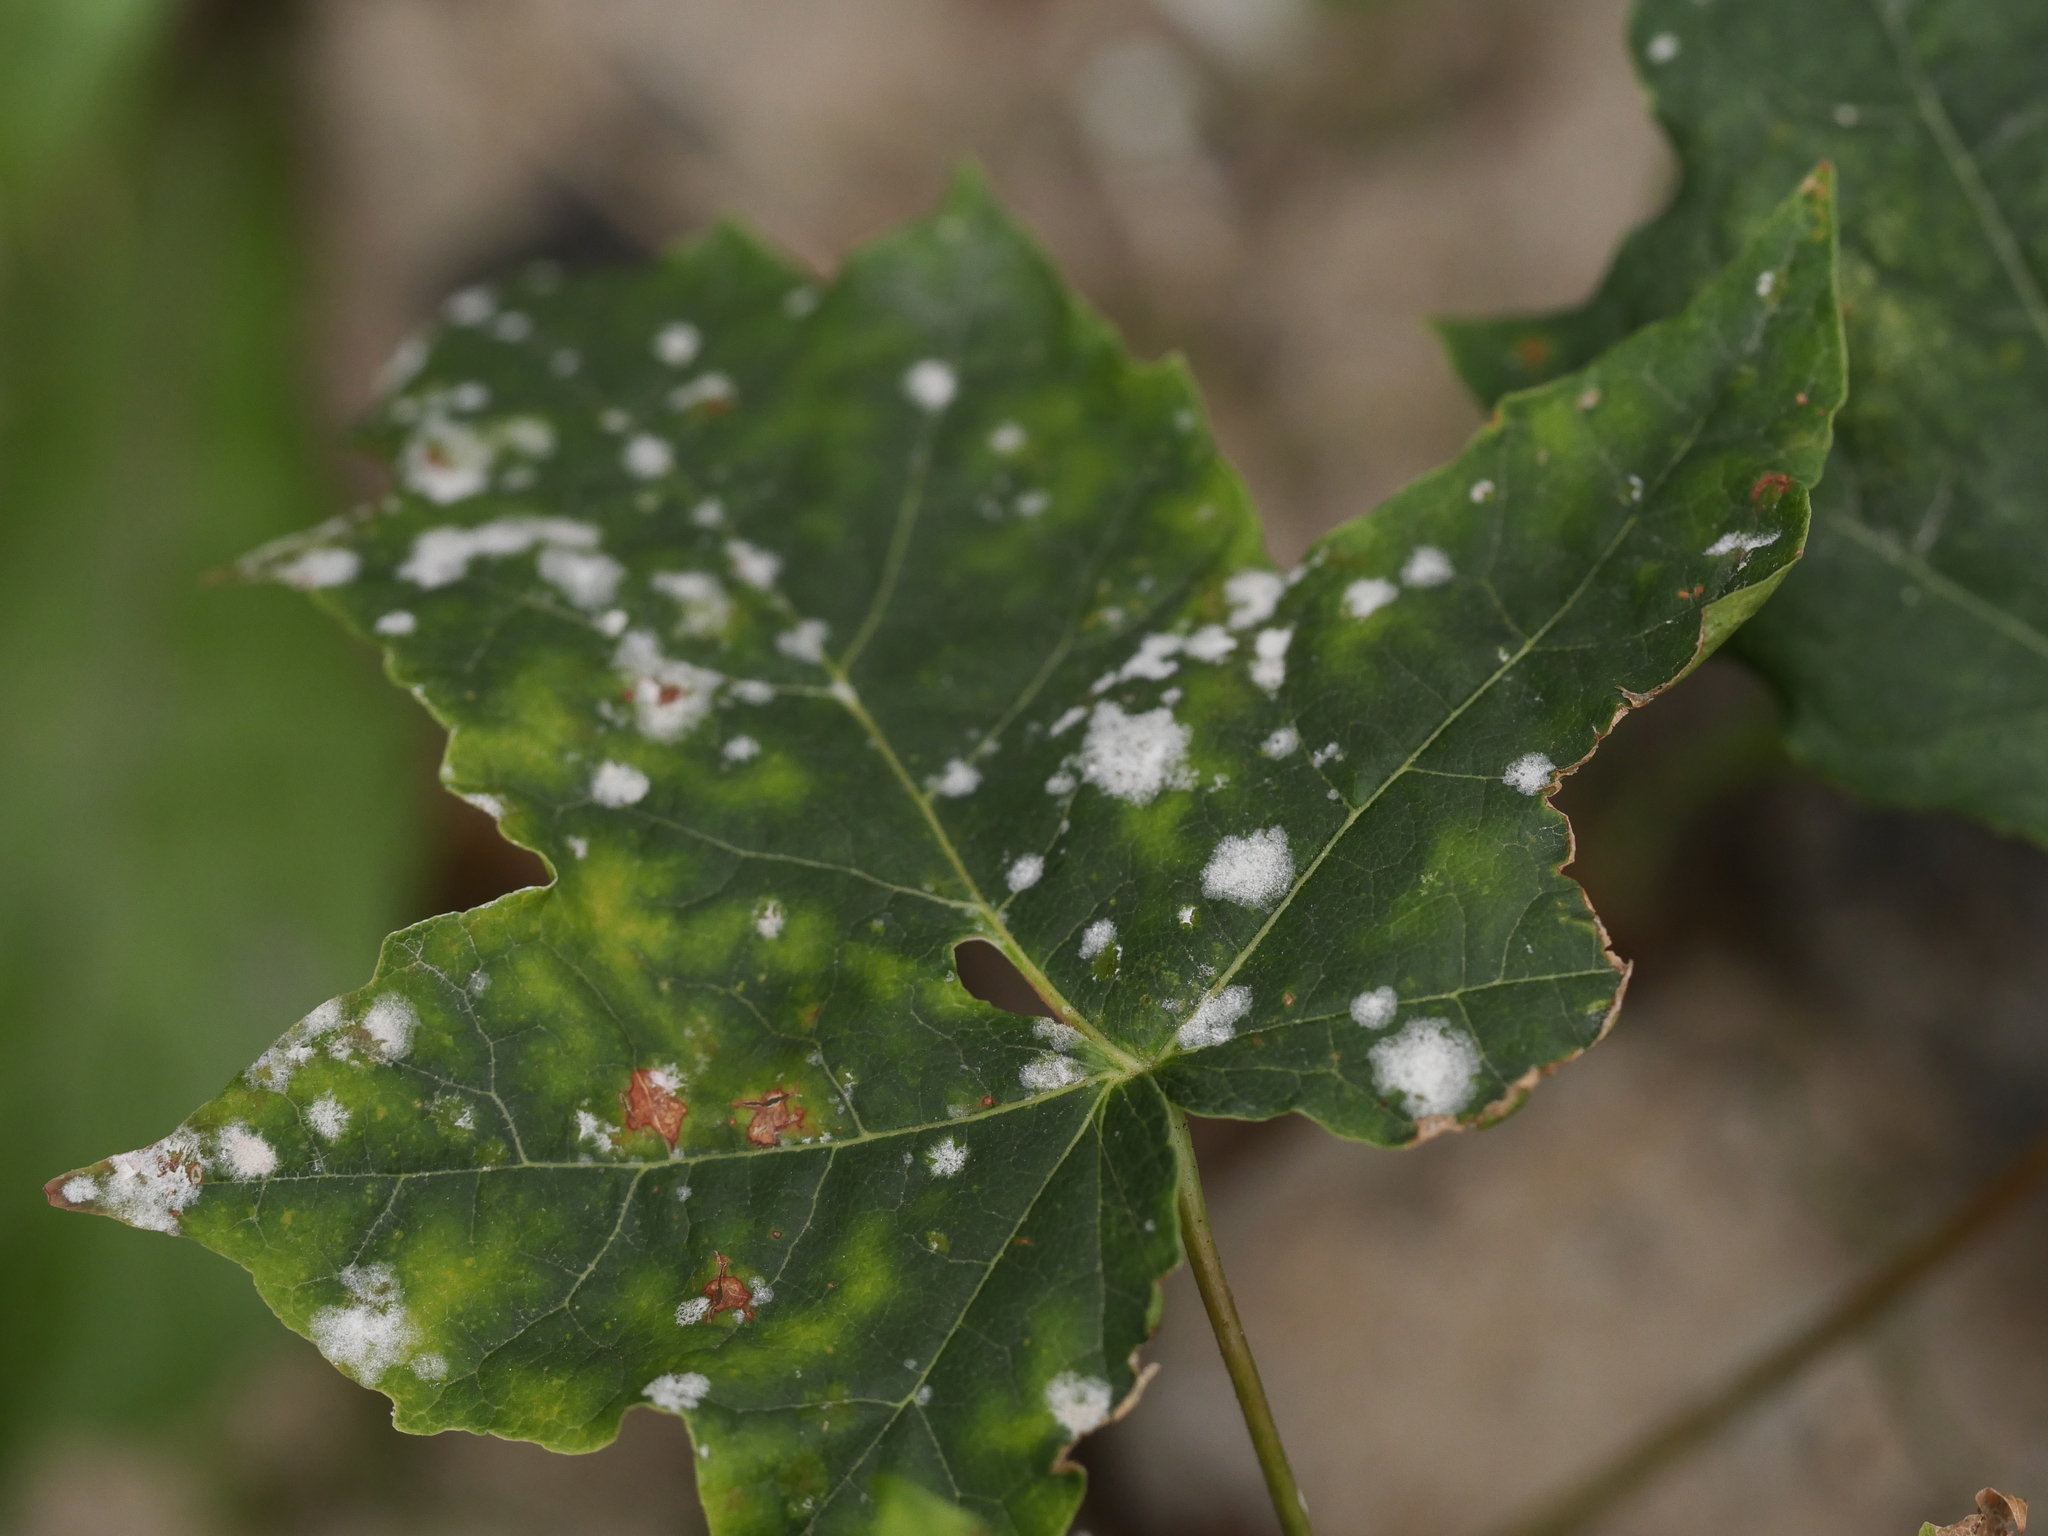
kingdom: Fungi
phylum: Ascomycota
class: Leotiomycetes
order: Helotiales
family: Erysiphaceae
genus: Sawadaea
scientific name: Sawadaea tulasnei
